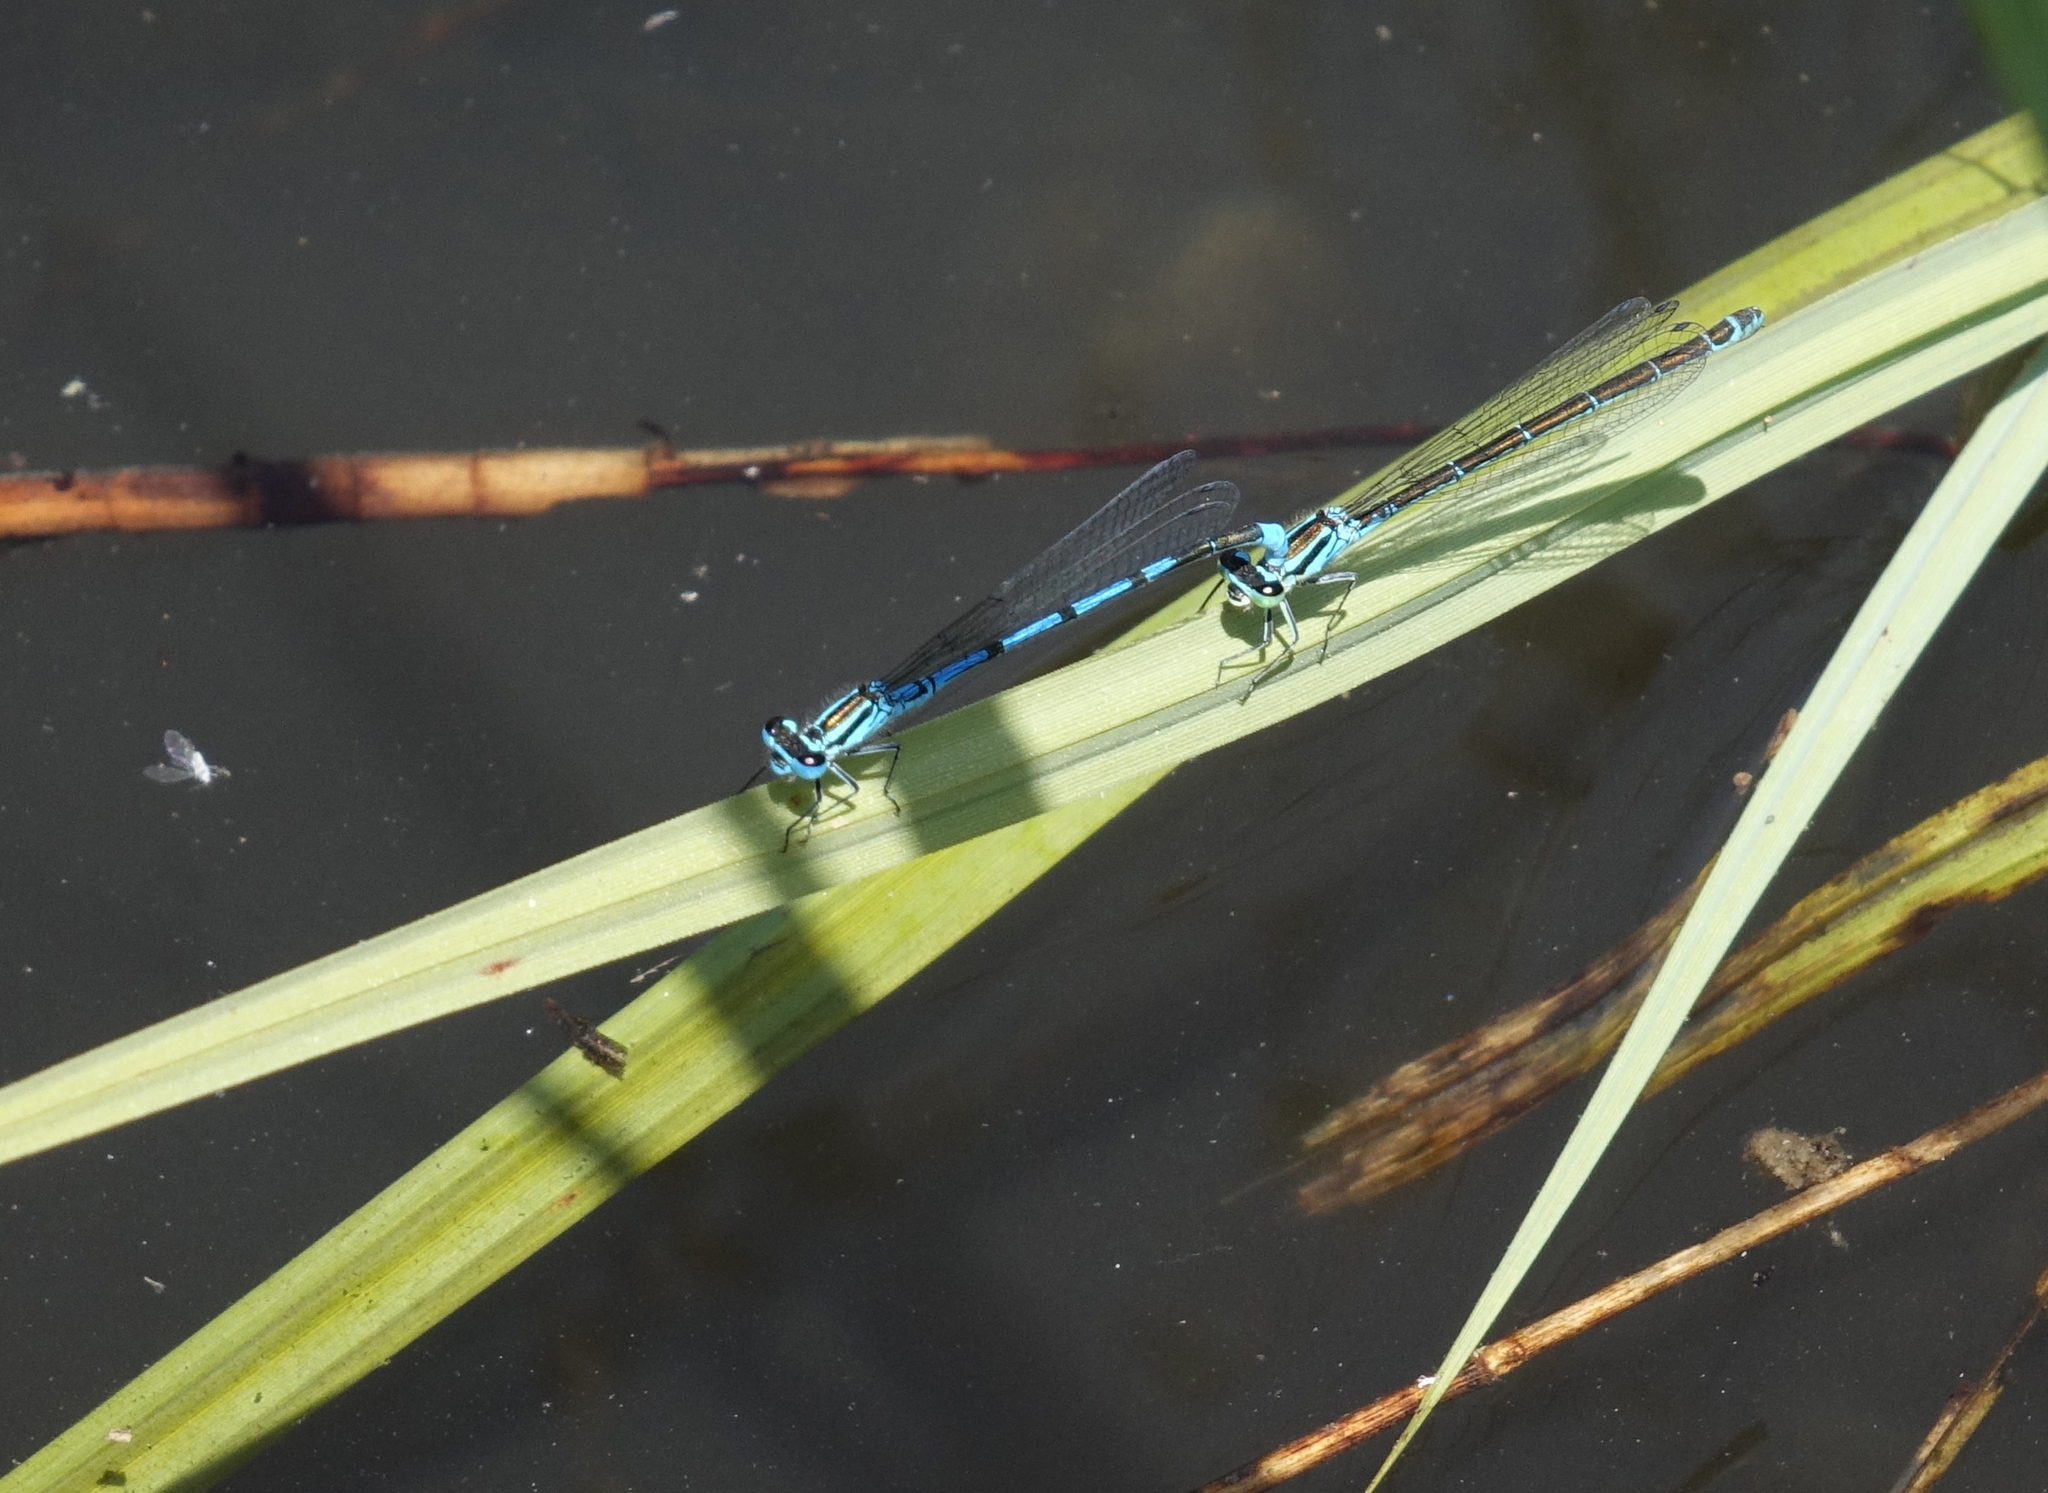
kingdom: Animalia
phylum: Arthropoda
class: Insecta
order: Odonata
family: Coenagrionidae
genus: Coenagrion
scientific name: Coenagrion puella
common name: Azure damselfly
